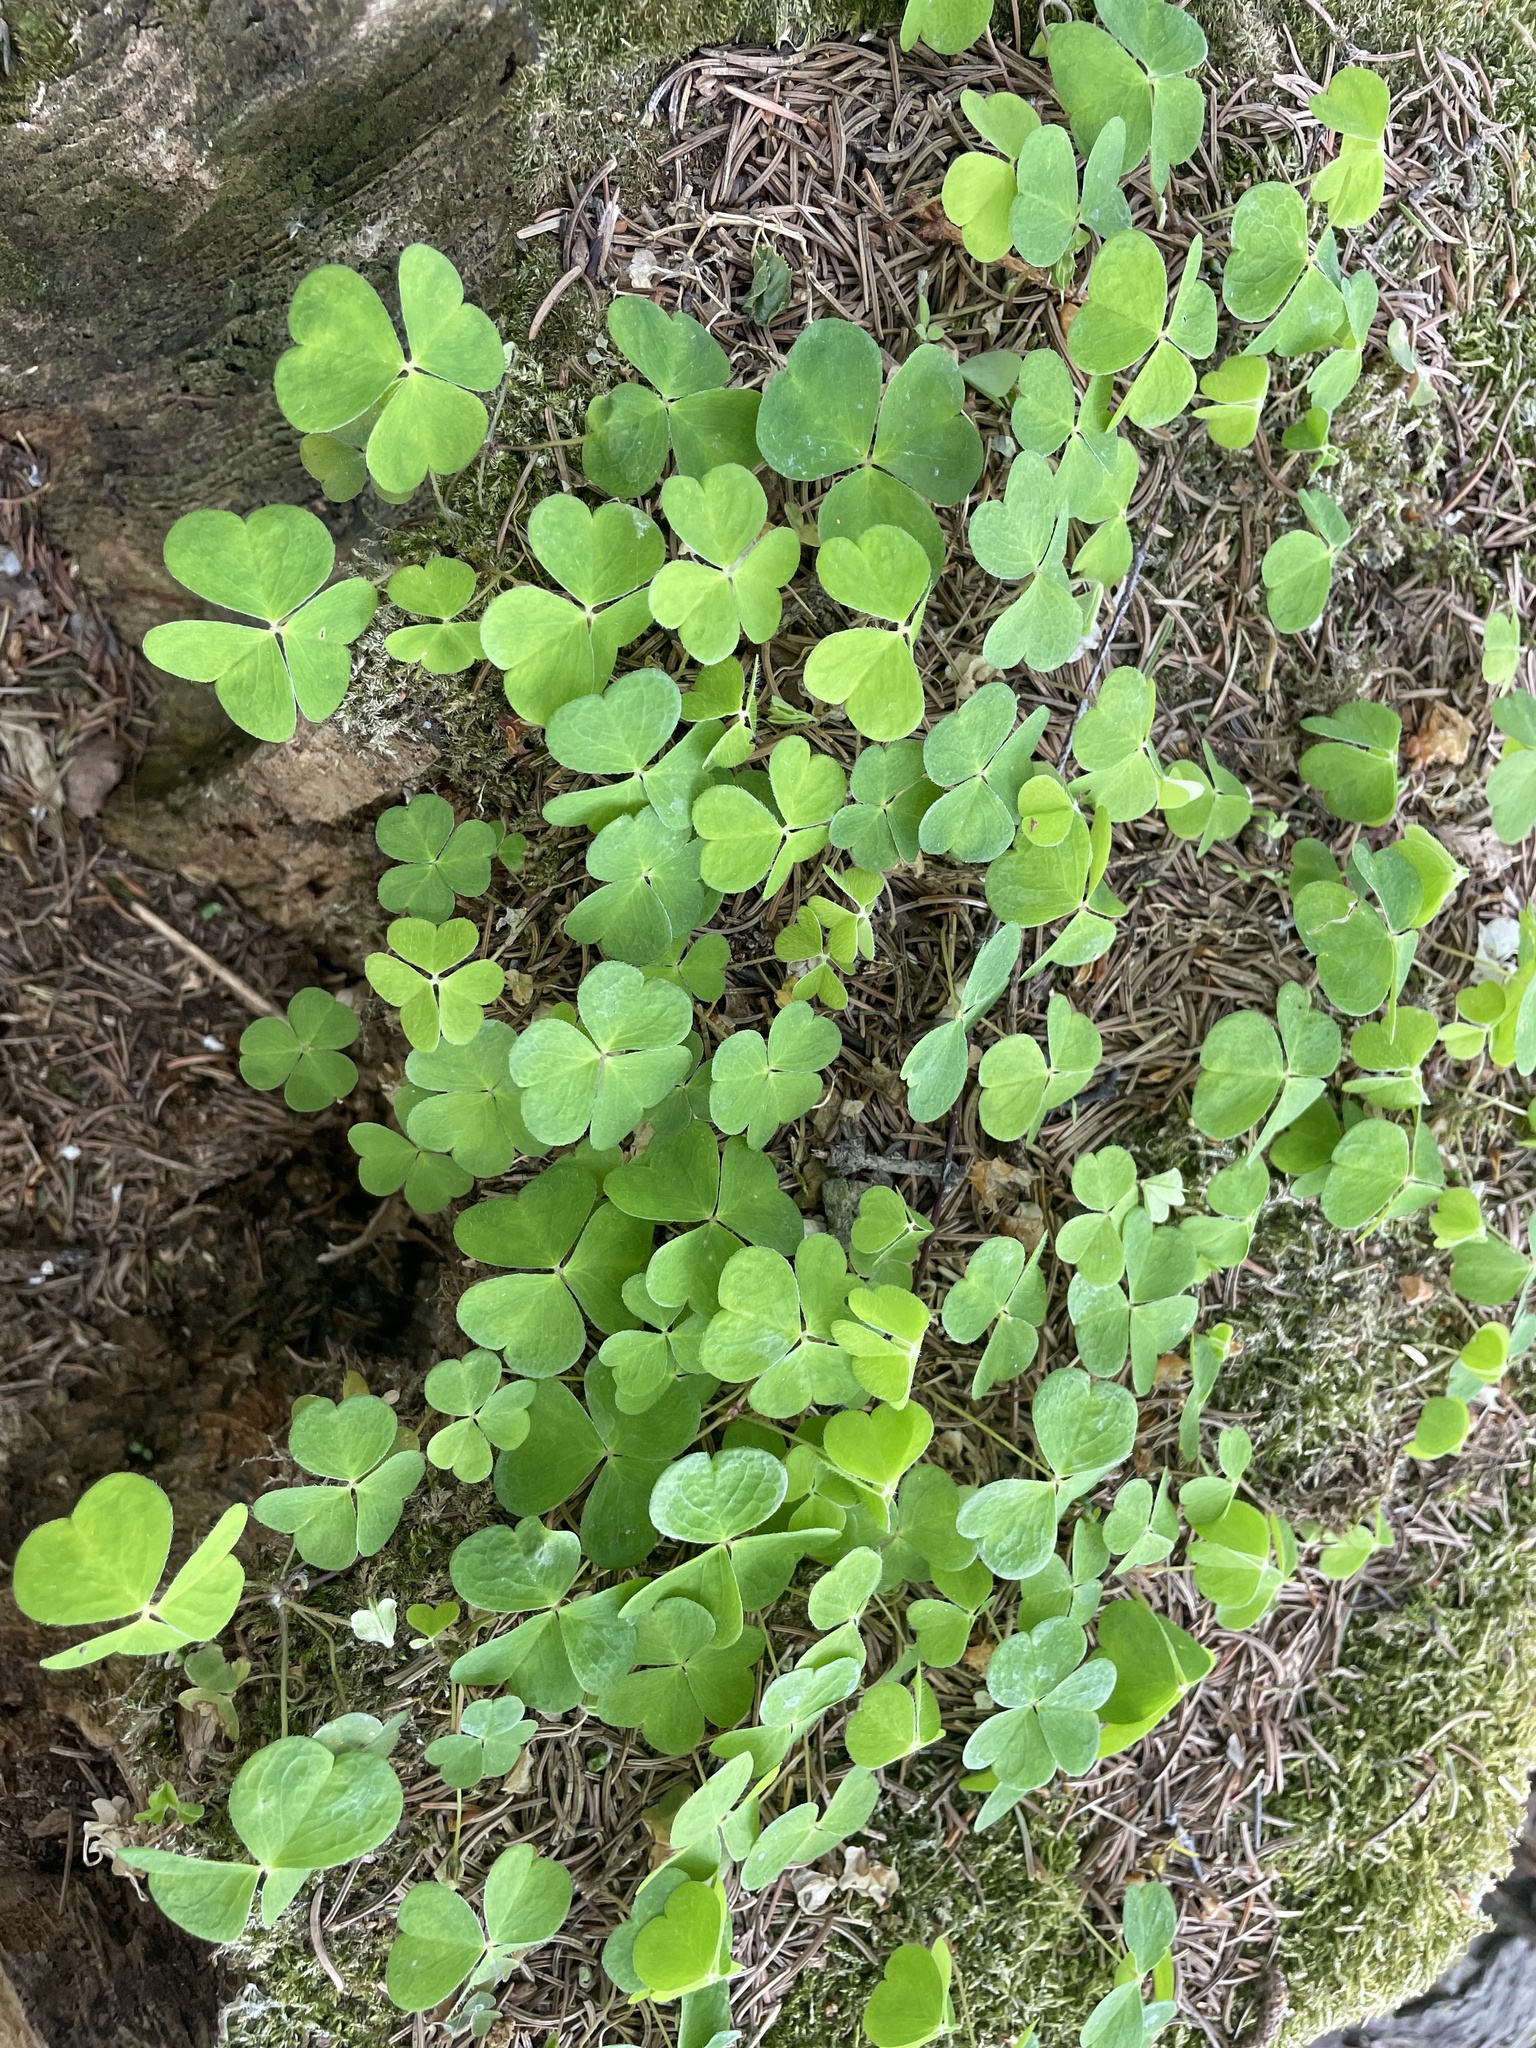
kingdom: Plantae
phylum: Tracheophyta
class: Magnoliopsida
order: Oxalidales
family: Oxalidaceae
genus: Oxalis
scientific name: Oxalis acetosella
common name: Wood-sorrel
